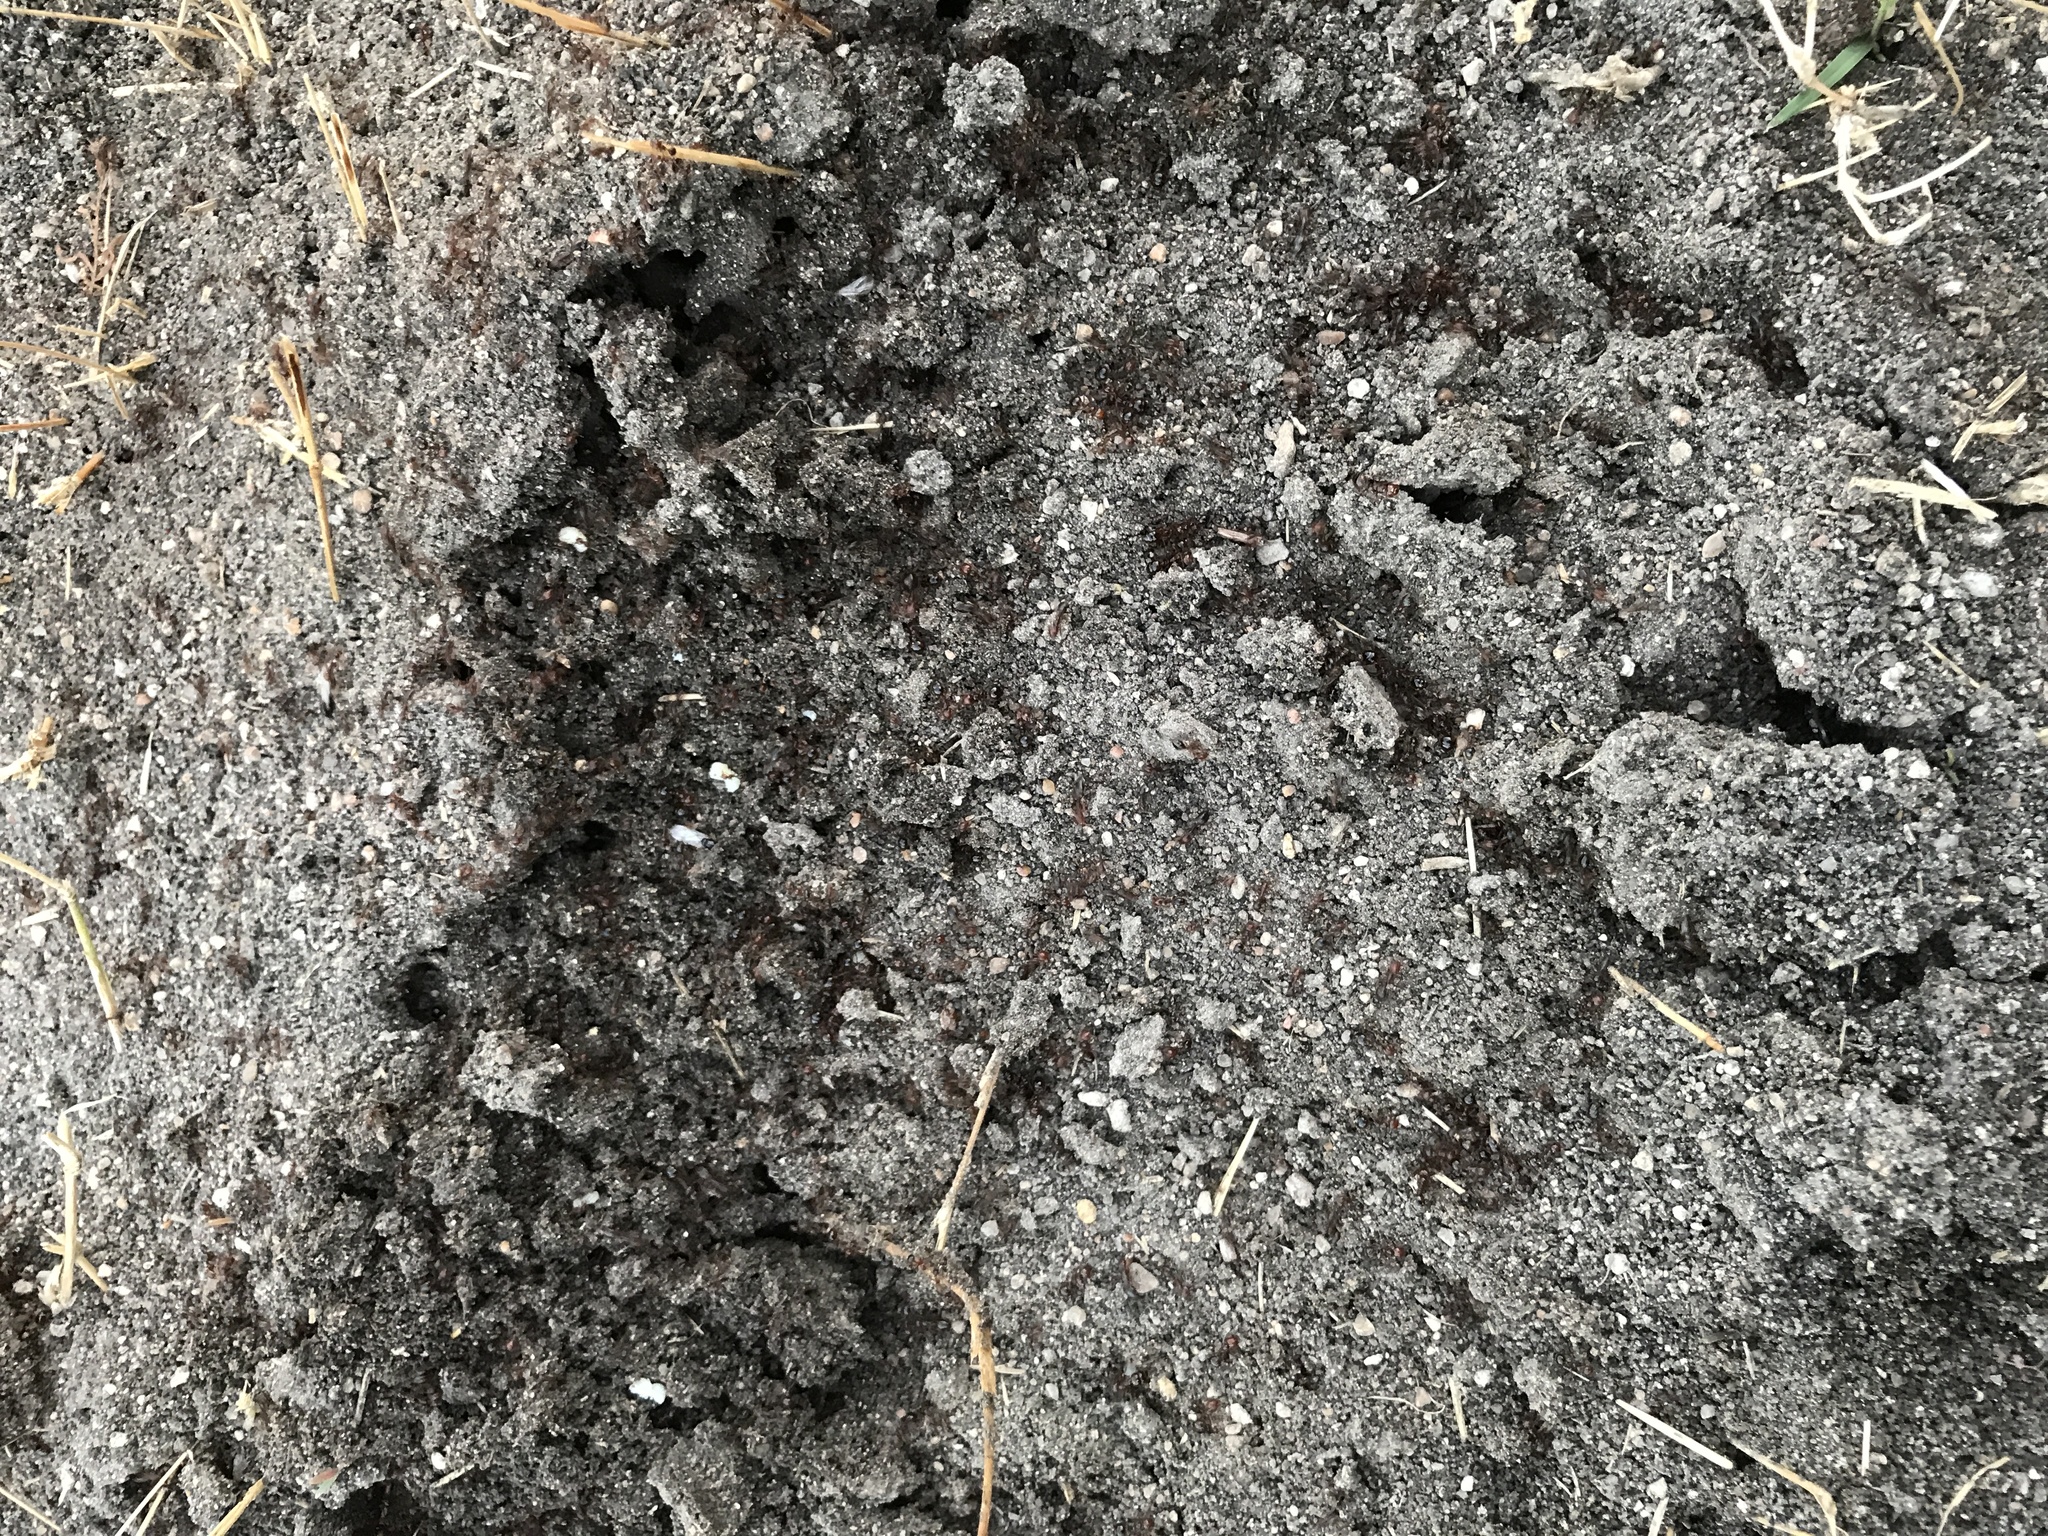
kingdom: Animalia
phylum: Arthropoda
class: Insecta
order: Hymenoptera
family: Formicidae
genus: Solenopsis
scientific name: Solenopsis invicta
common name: Red imported fire ant
